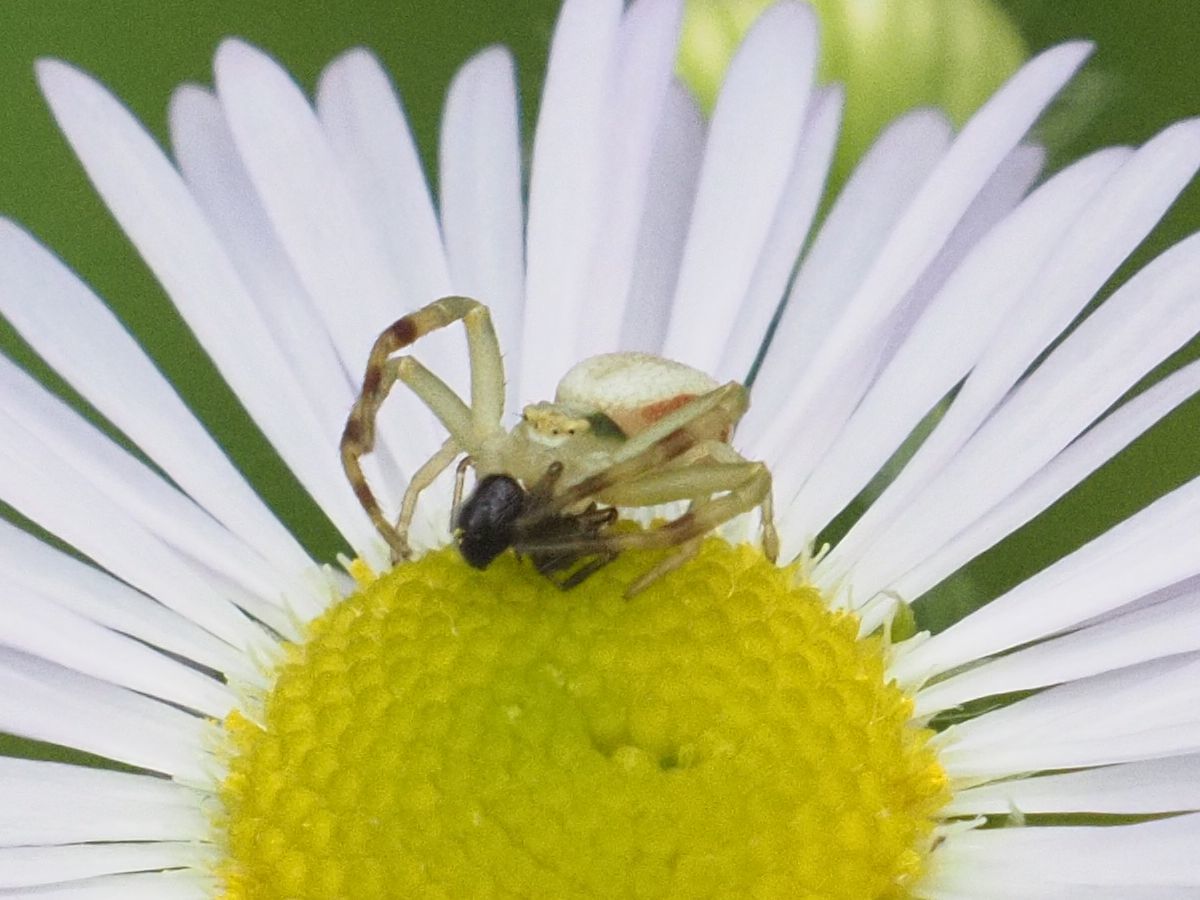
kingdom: Animalia
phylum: Arthropoda
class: Arachnida
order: Araneae
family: Thomisidae
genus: Misumena
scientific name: Misumena vatia
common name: Goldenrod crab spider
